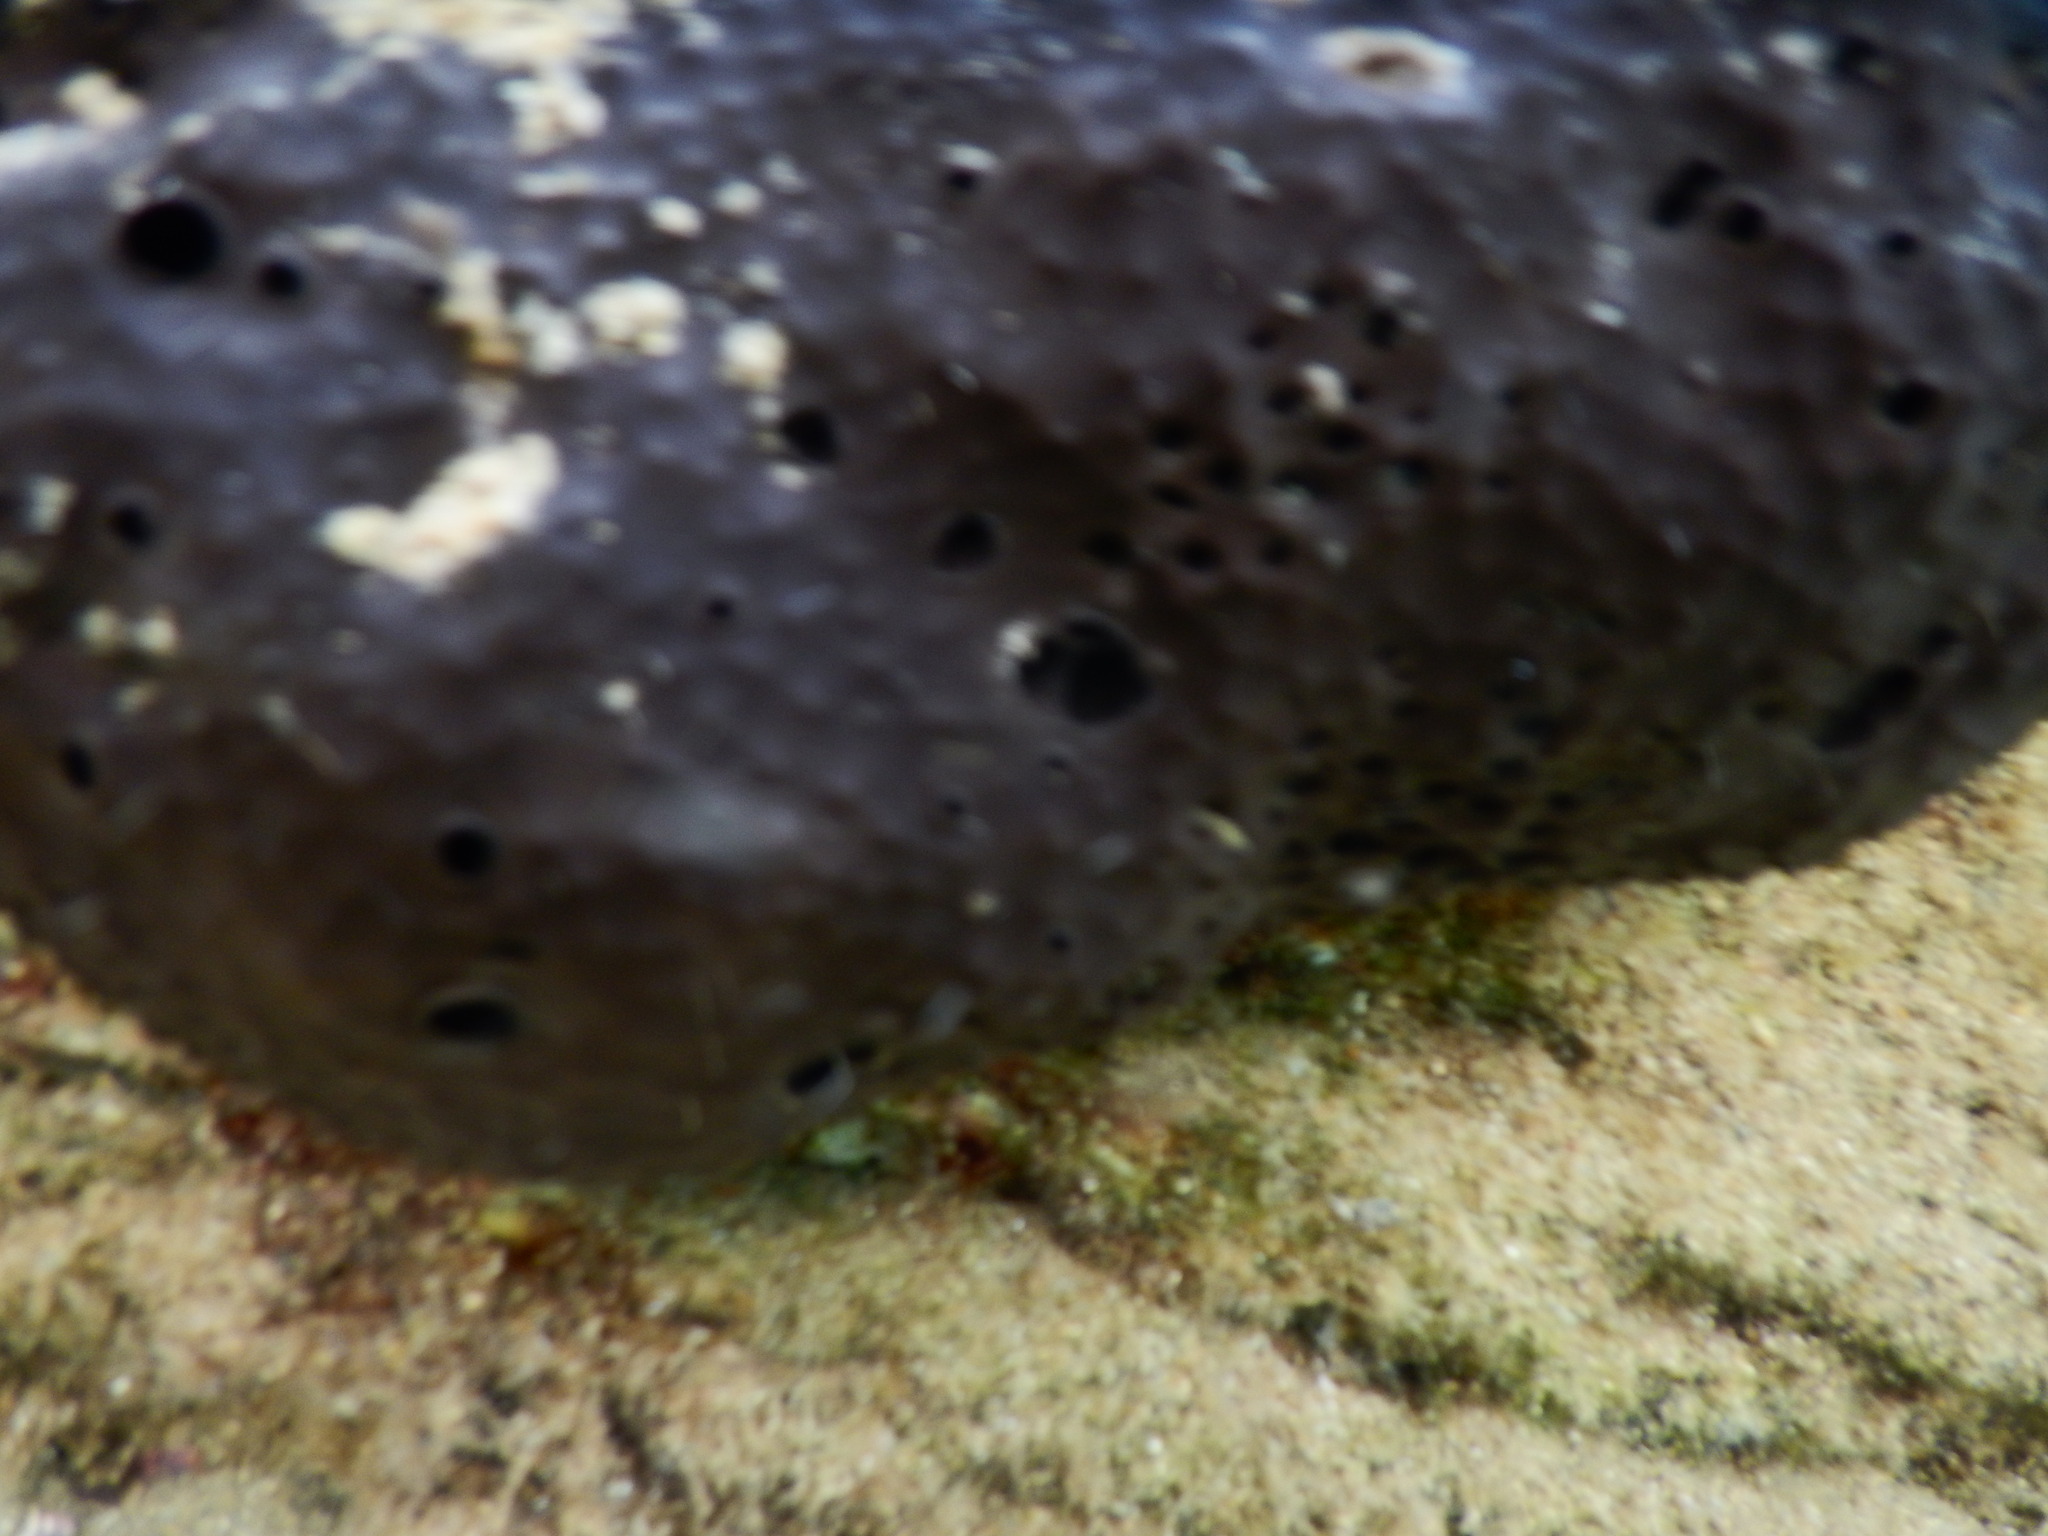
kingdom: Animalia
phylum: Porifera
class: Demospongiae
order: Dictyoceratida
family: Irciniidae
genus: Sarcotragus
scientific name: Sarcotragus spinosulus
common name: Black leather sponge
